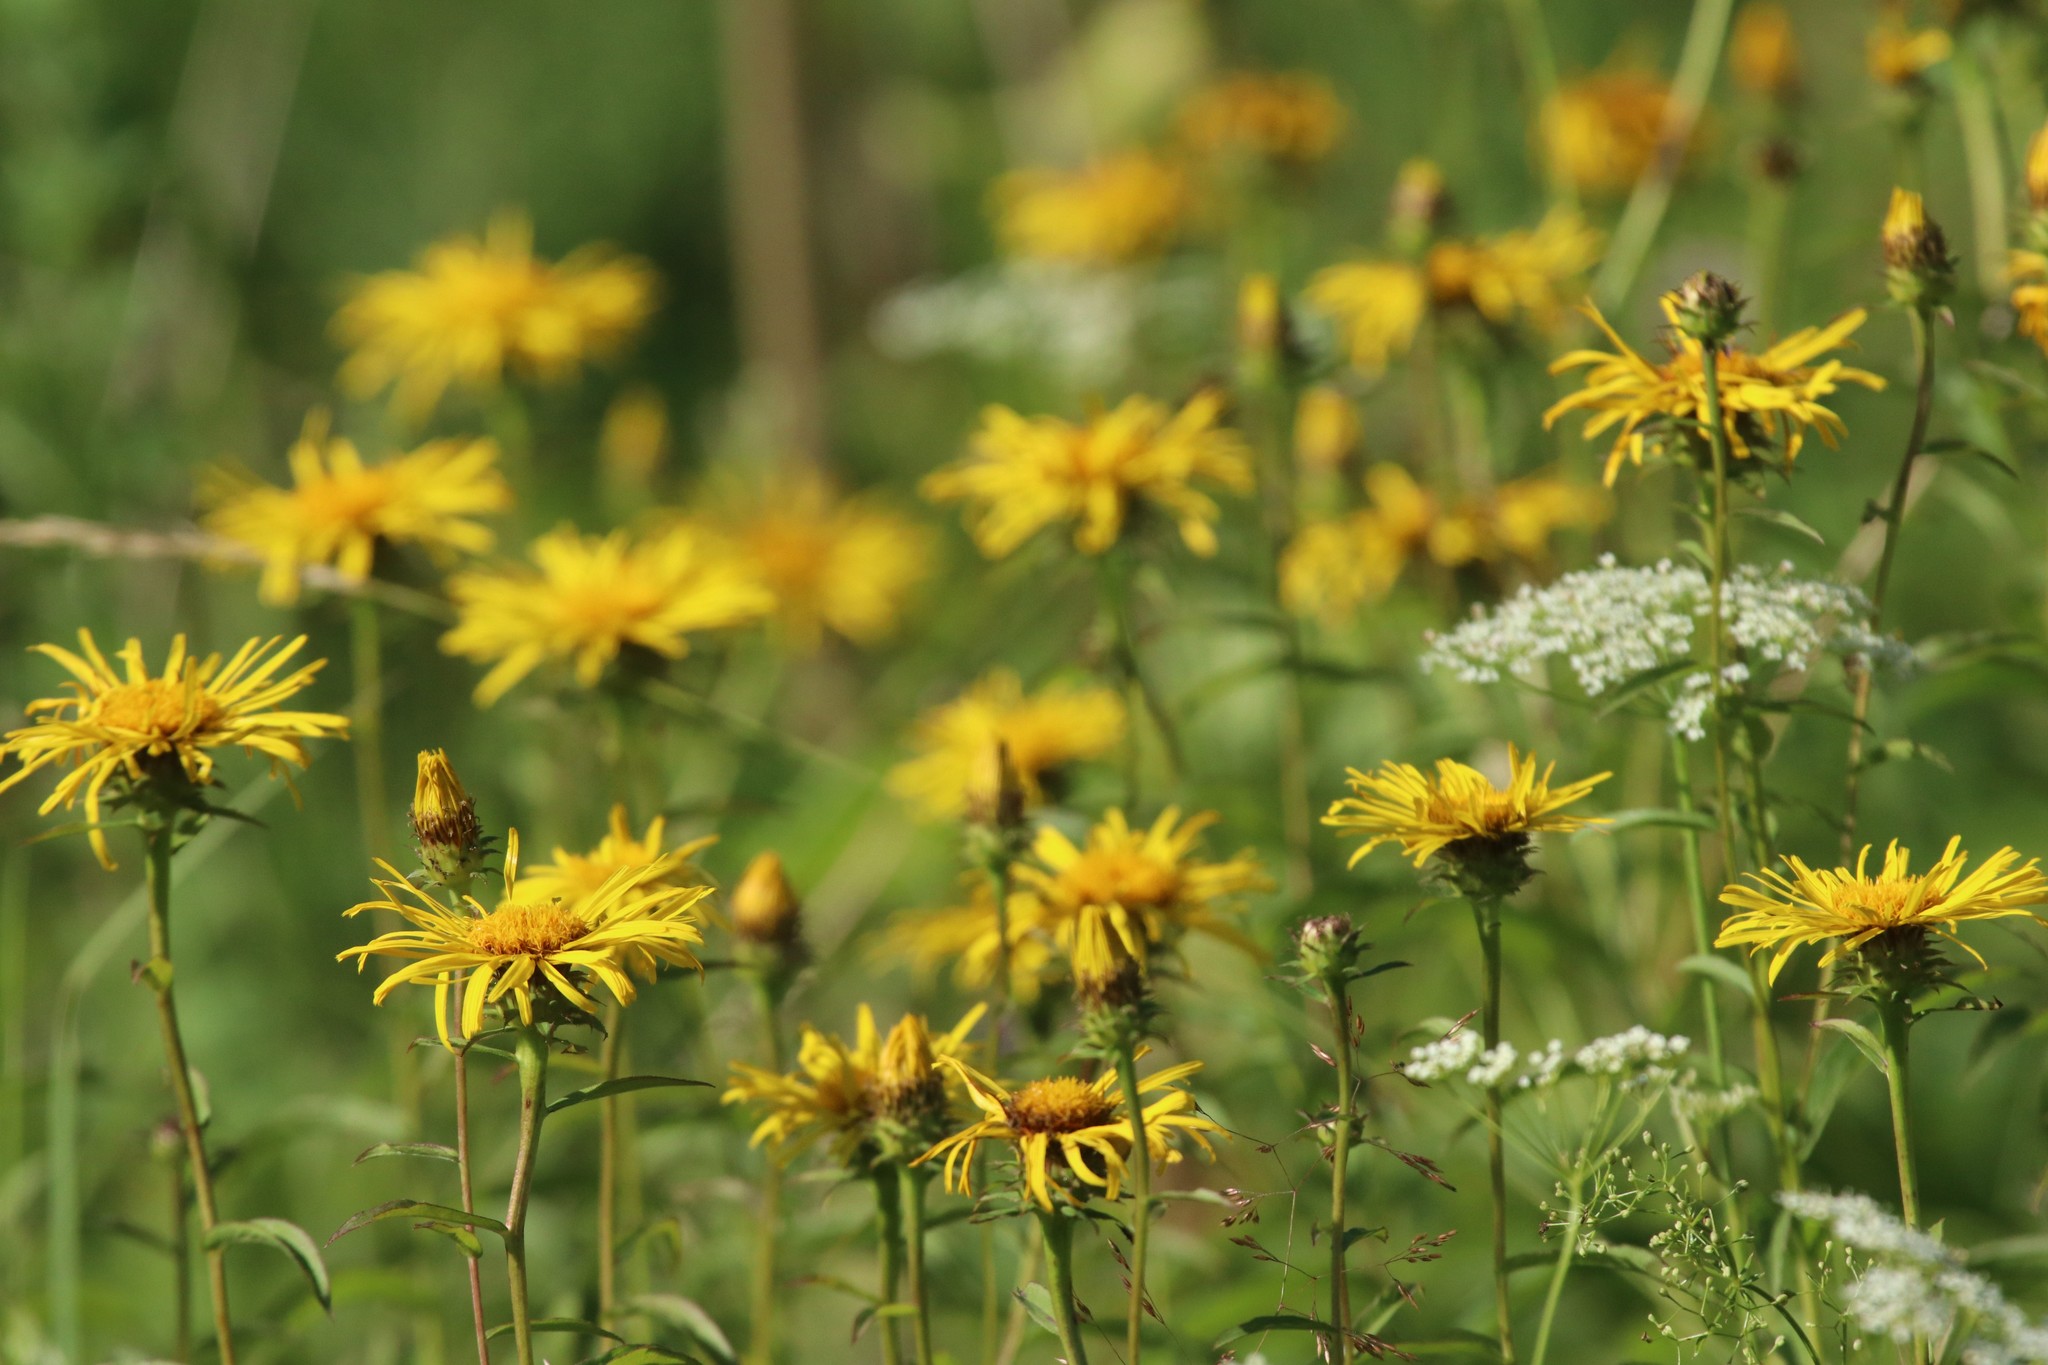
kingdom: Plantae
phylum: Tracheophyta
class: Magnoliopsida
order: Asterales
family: Asteraceae
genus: Pentanema
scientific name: Pentanema salicinum
